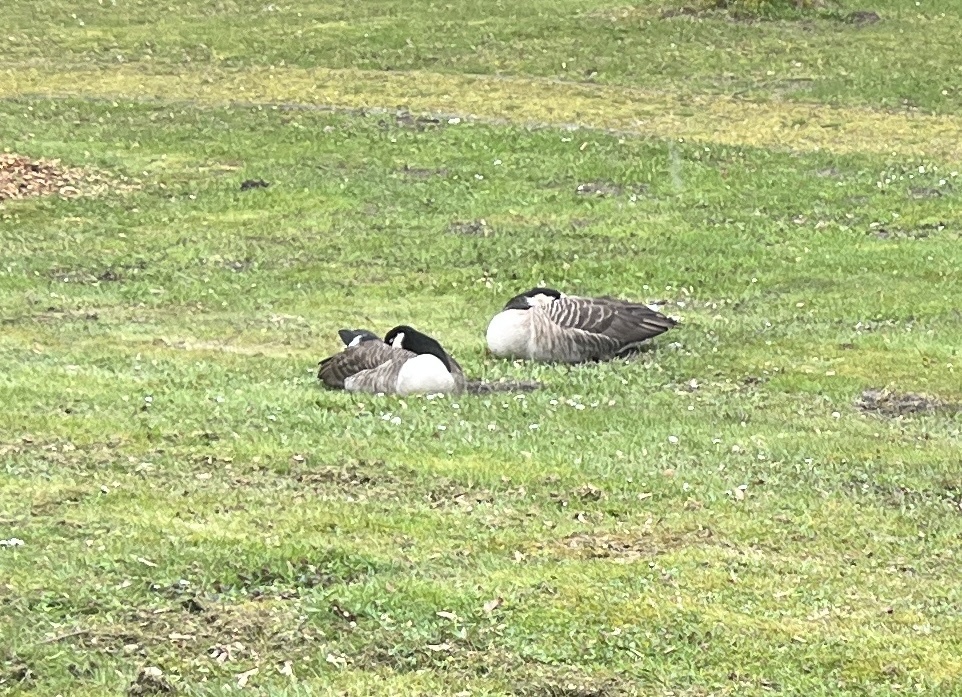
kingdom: Animalia
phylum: Chordata
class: Aves
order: Anseriformes
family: Anatidae
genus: Branta
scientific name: Branta canadensis
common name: Canada goose
